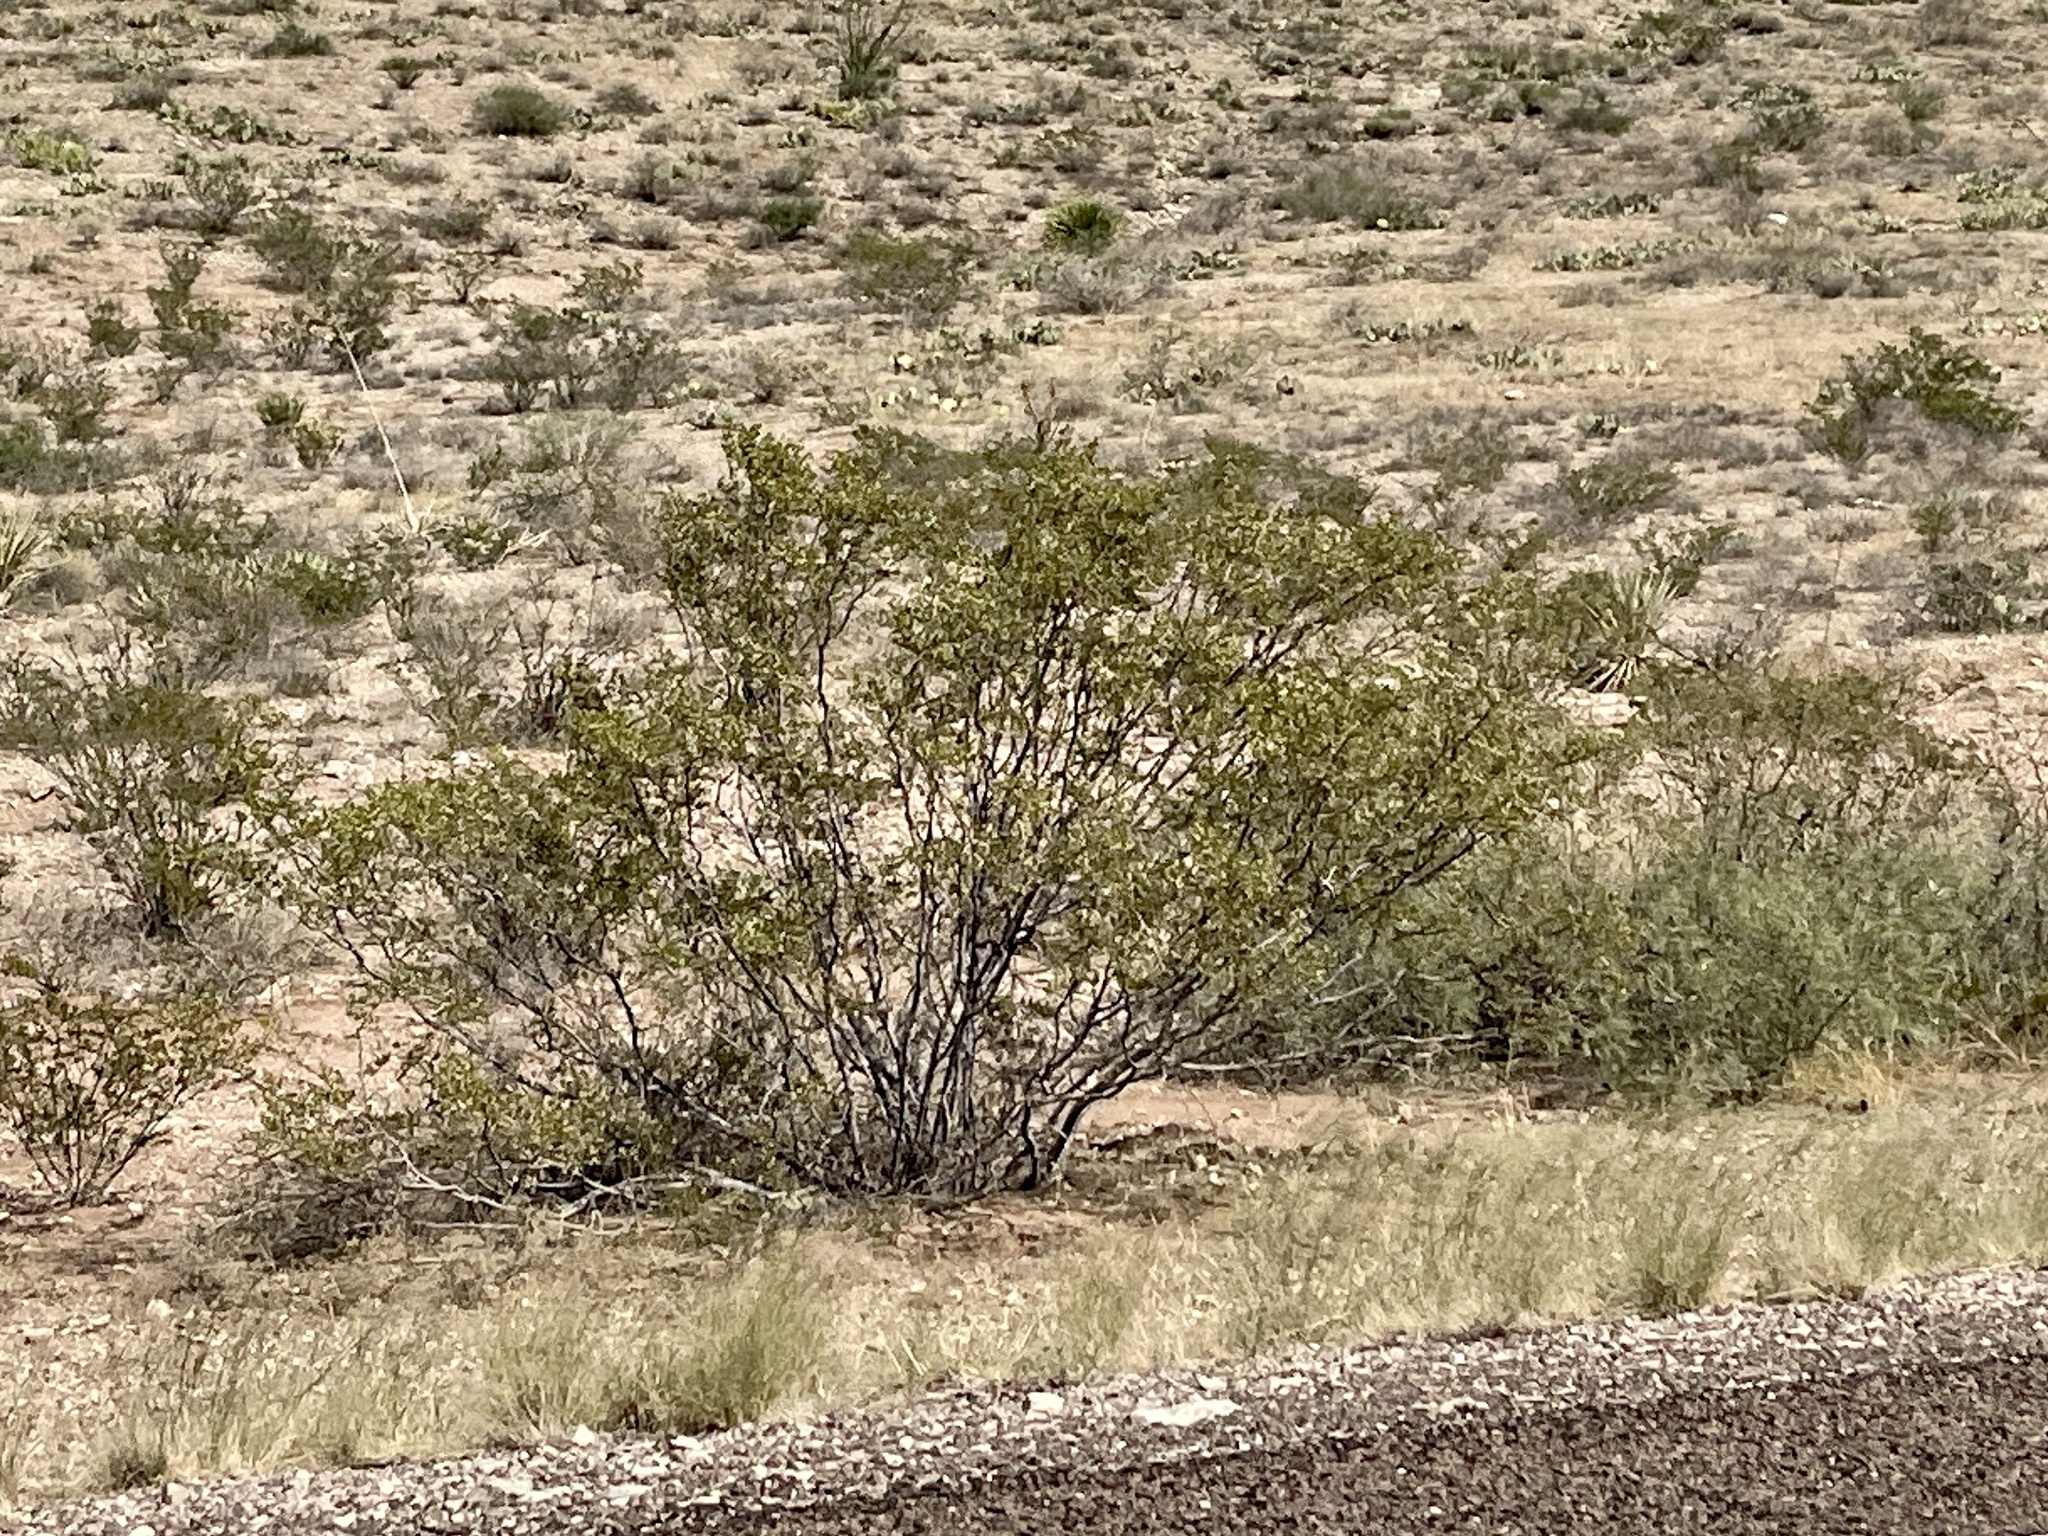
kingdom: Plantae
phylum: Tracheophyta
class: Magnoliopsida
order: Zygophyllales
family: Zygophyllaceae
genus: Larrea
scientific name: Larrea tridentata
